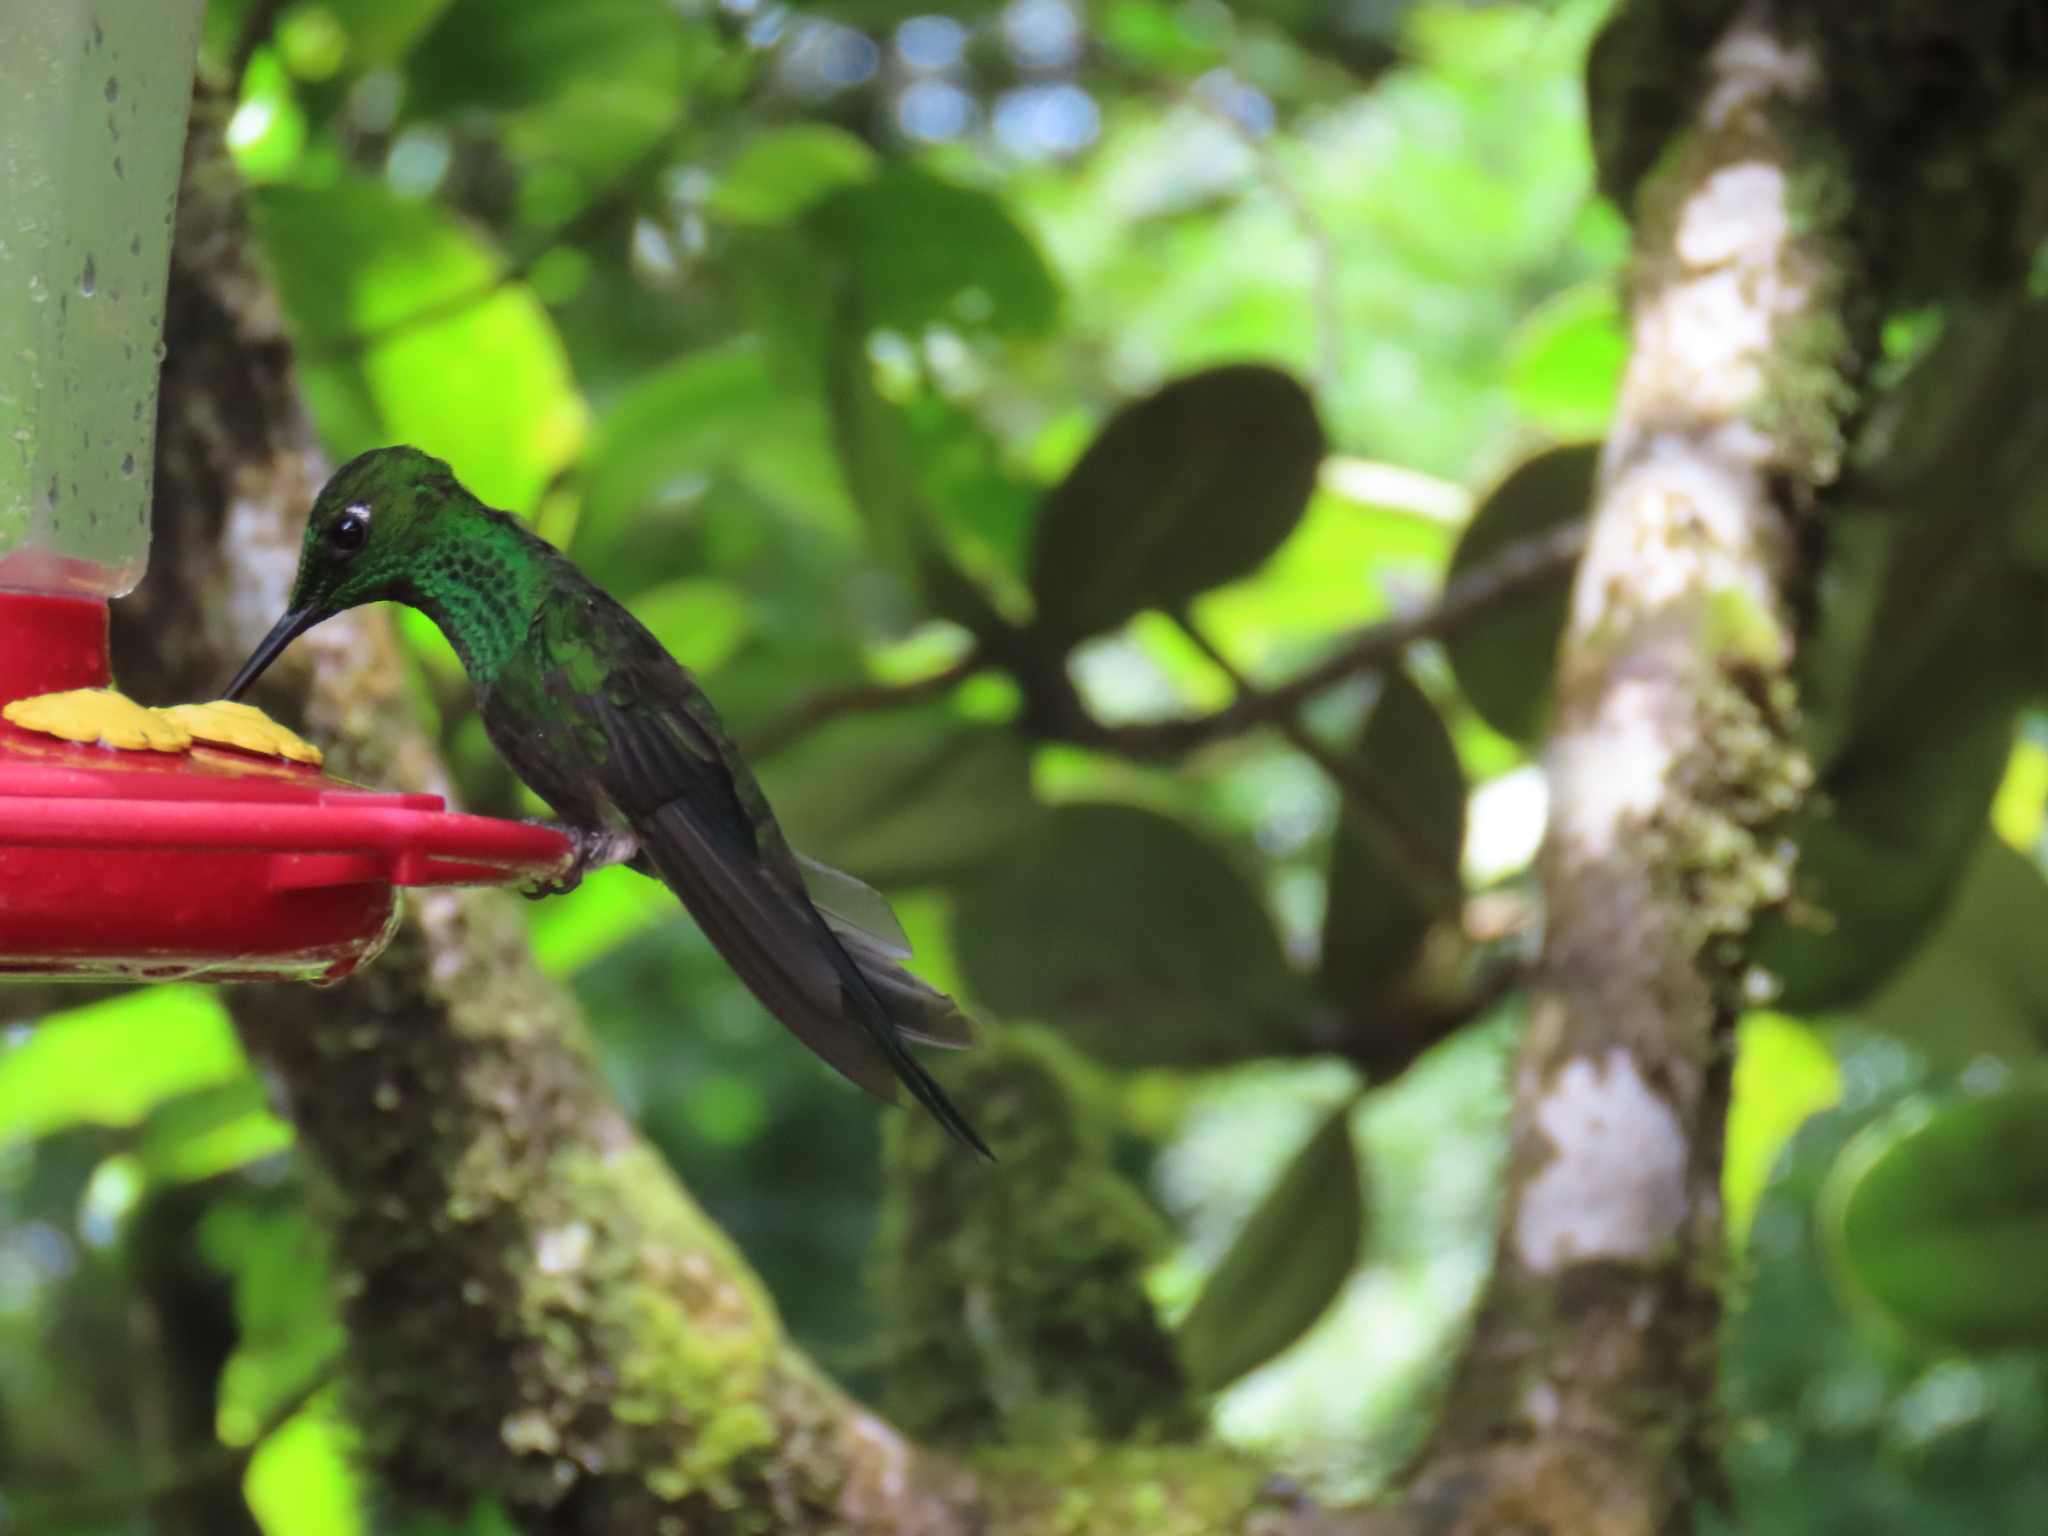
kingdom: Animalia
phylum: Chordata
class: Aves
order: Apodiformes
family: Trochilidae
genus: Heliodoxa
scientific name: Heliodoxa jacula
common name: Green-crowned brilliant
